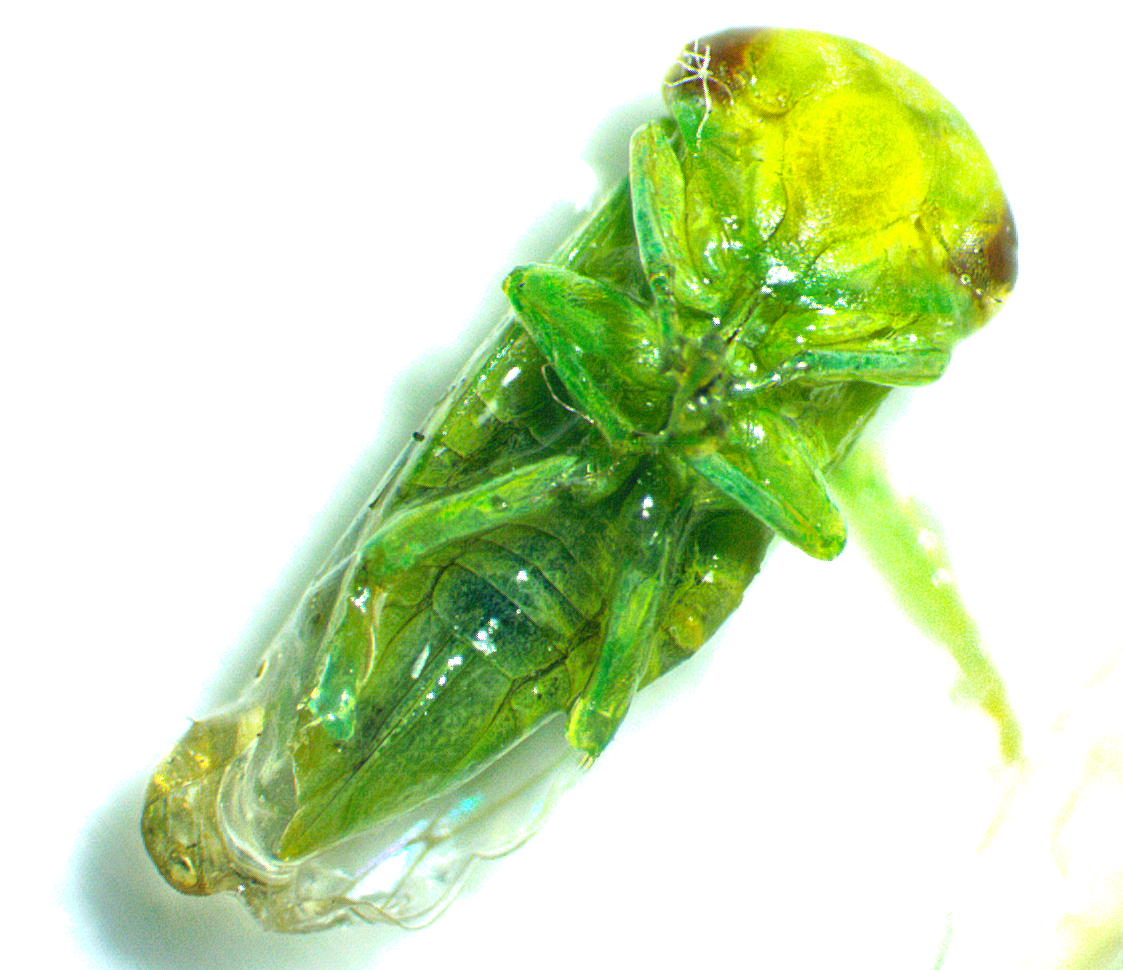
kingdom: Animalia
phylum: Arthropoda
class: Insecta
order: Hemiptera
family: Cicadellidae
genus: Idiocerus
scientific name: Idiocerus nervatus
